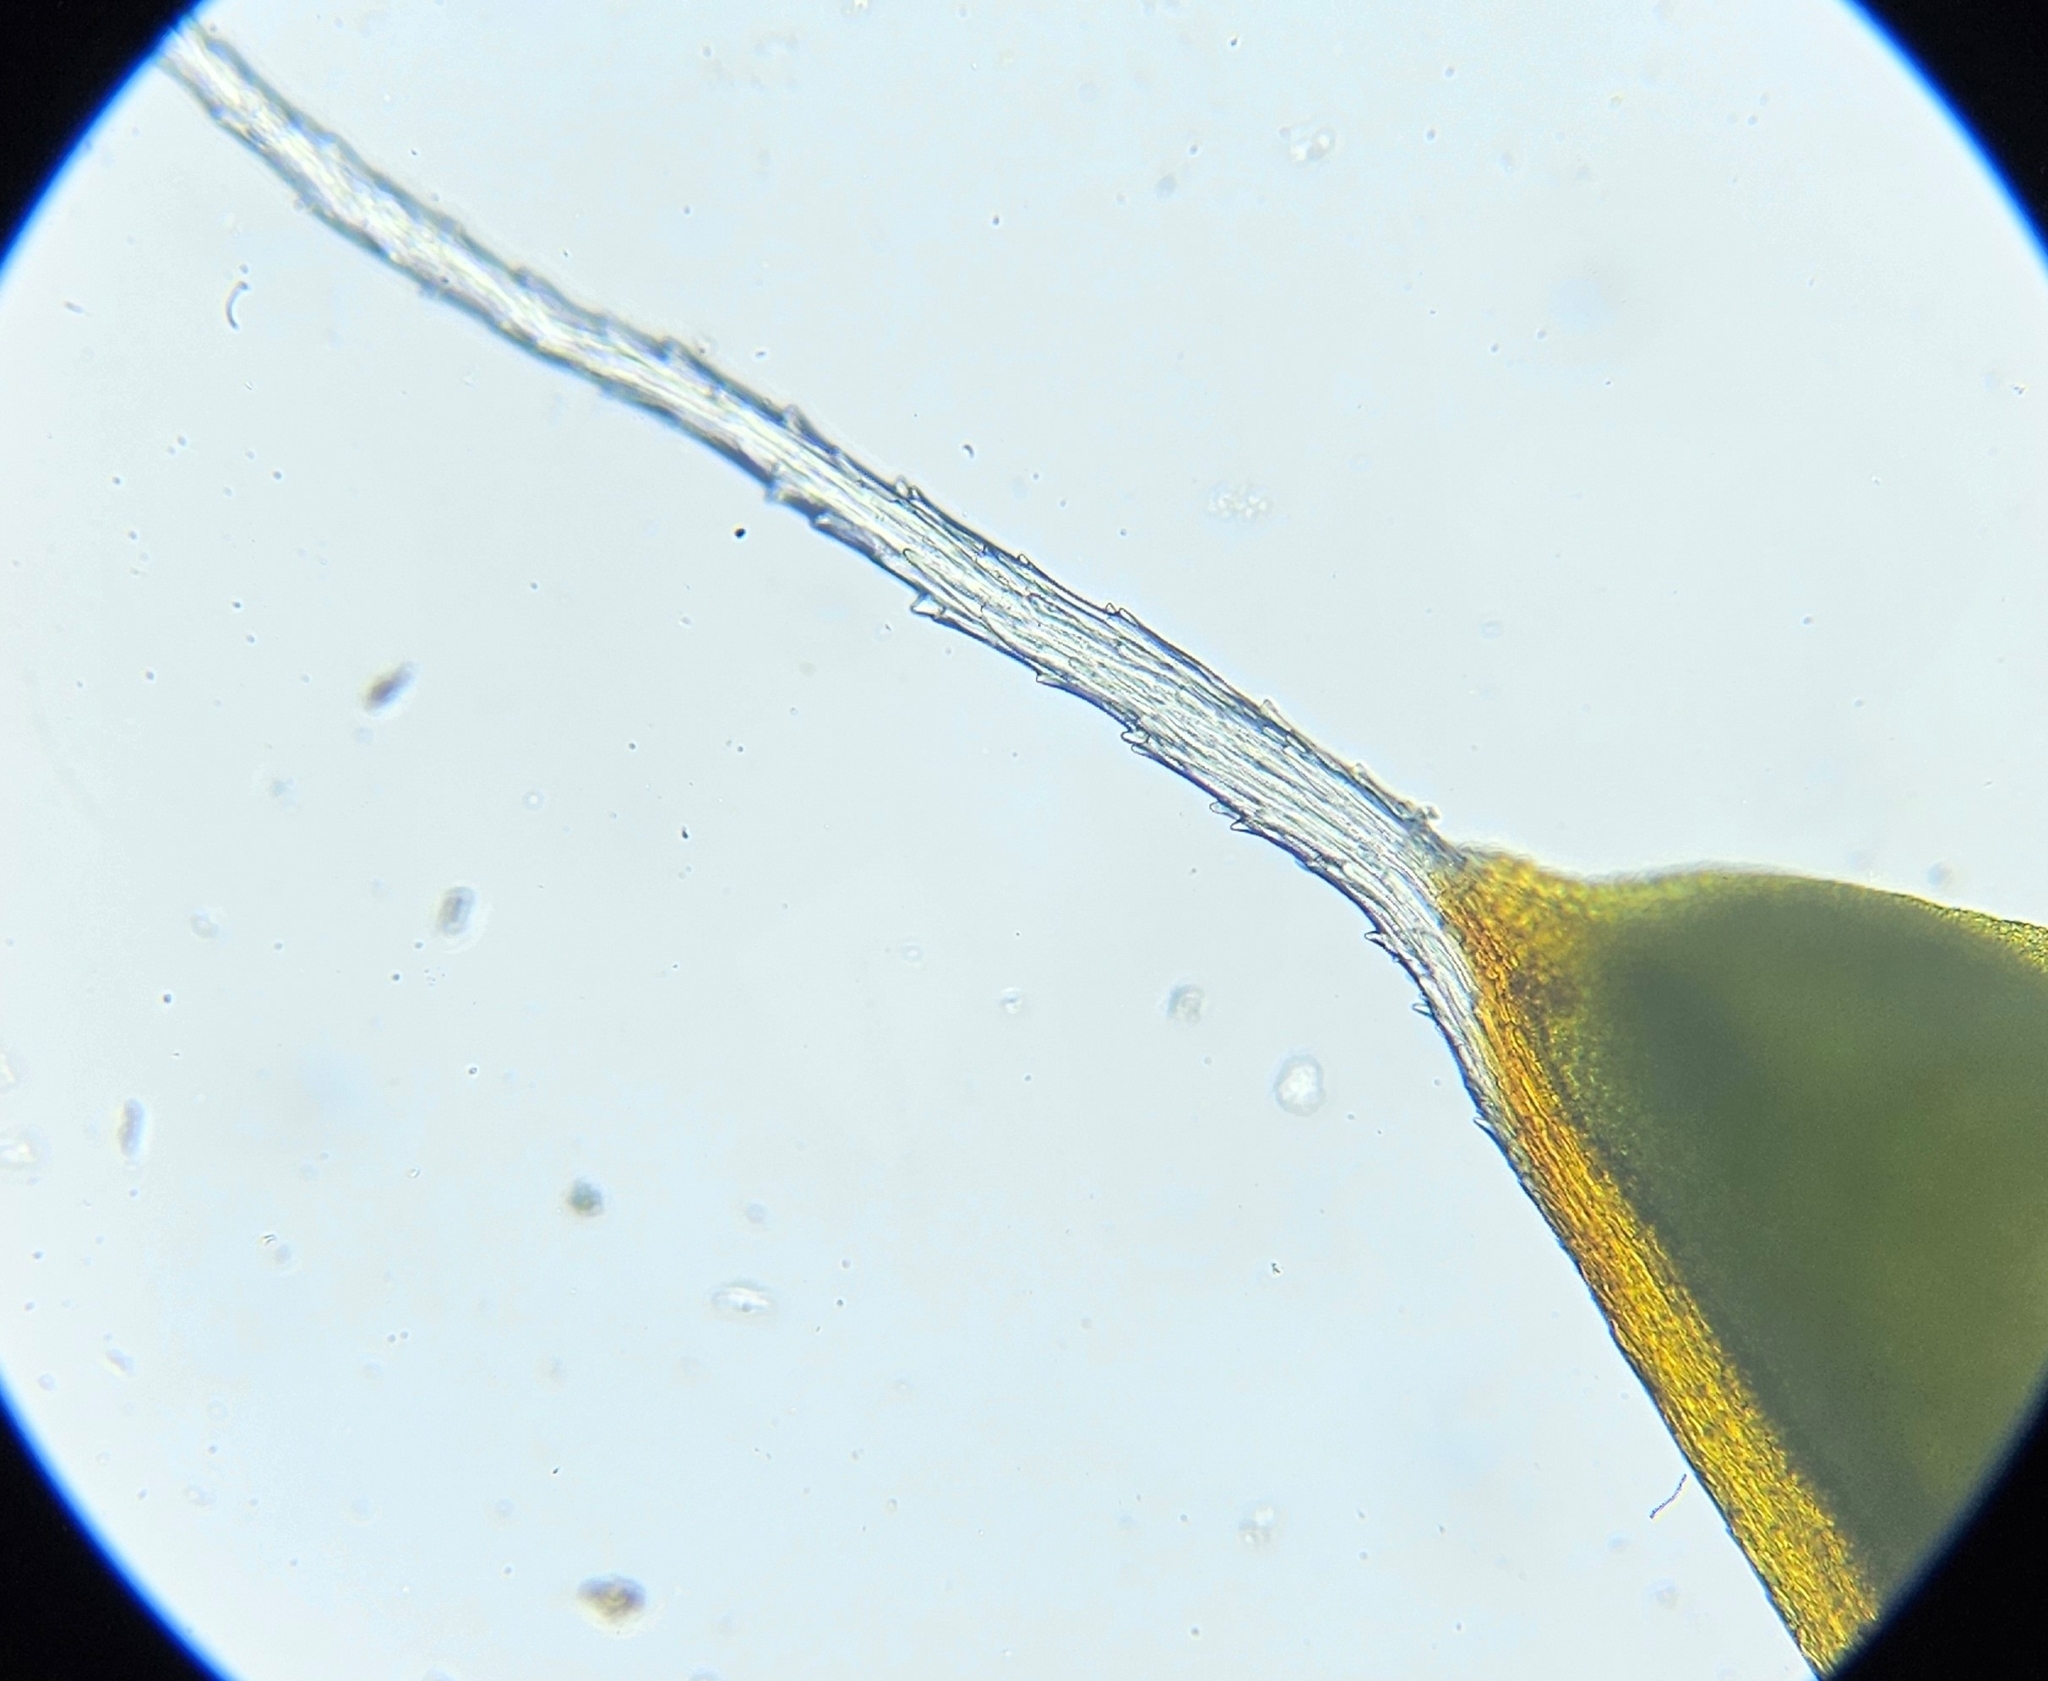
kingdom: Plantae
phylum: Bryophyta
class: Bryopsida
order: Pottiales
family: Pottiaceae
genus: Syntrichia
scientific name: Syntrichia montana
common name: Intermediate screw-moss
